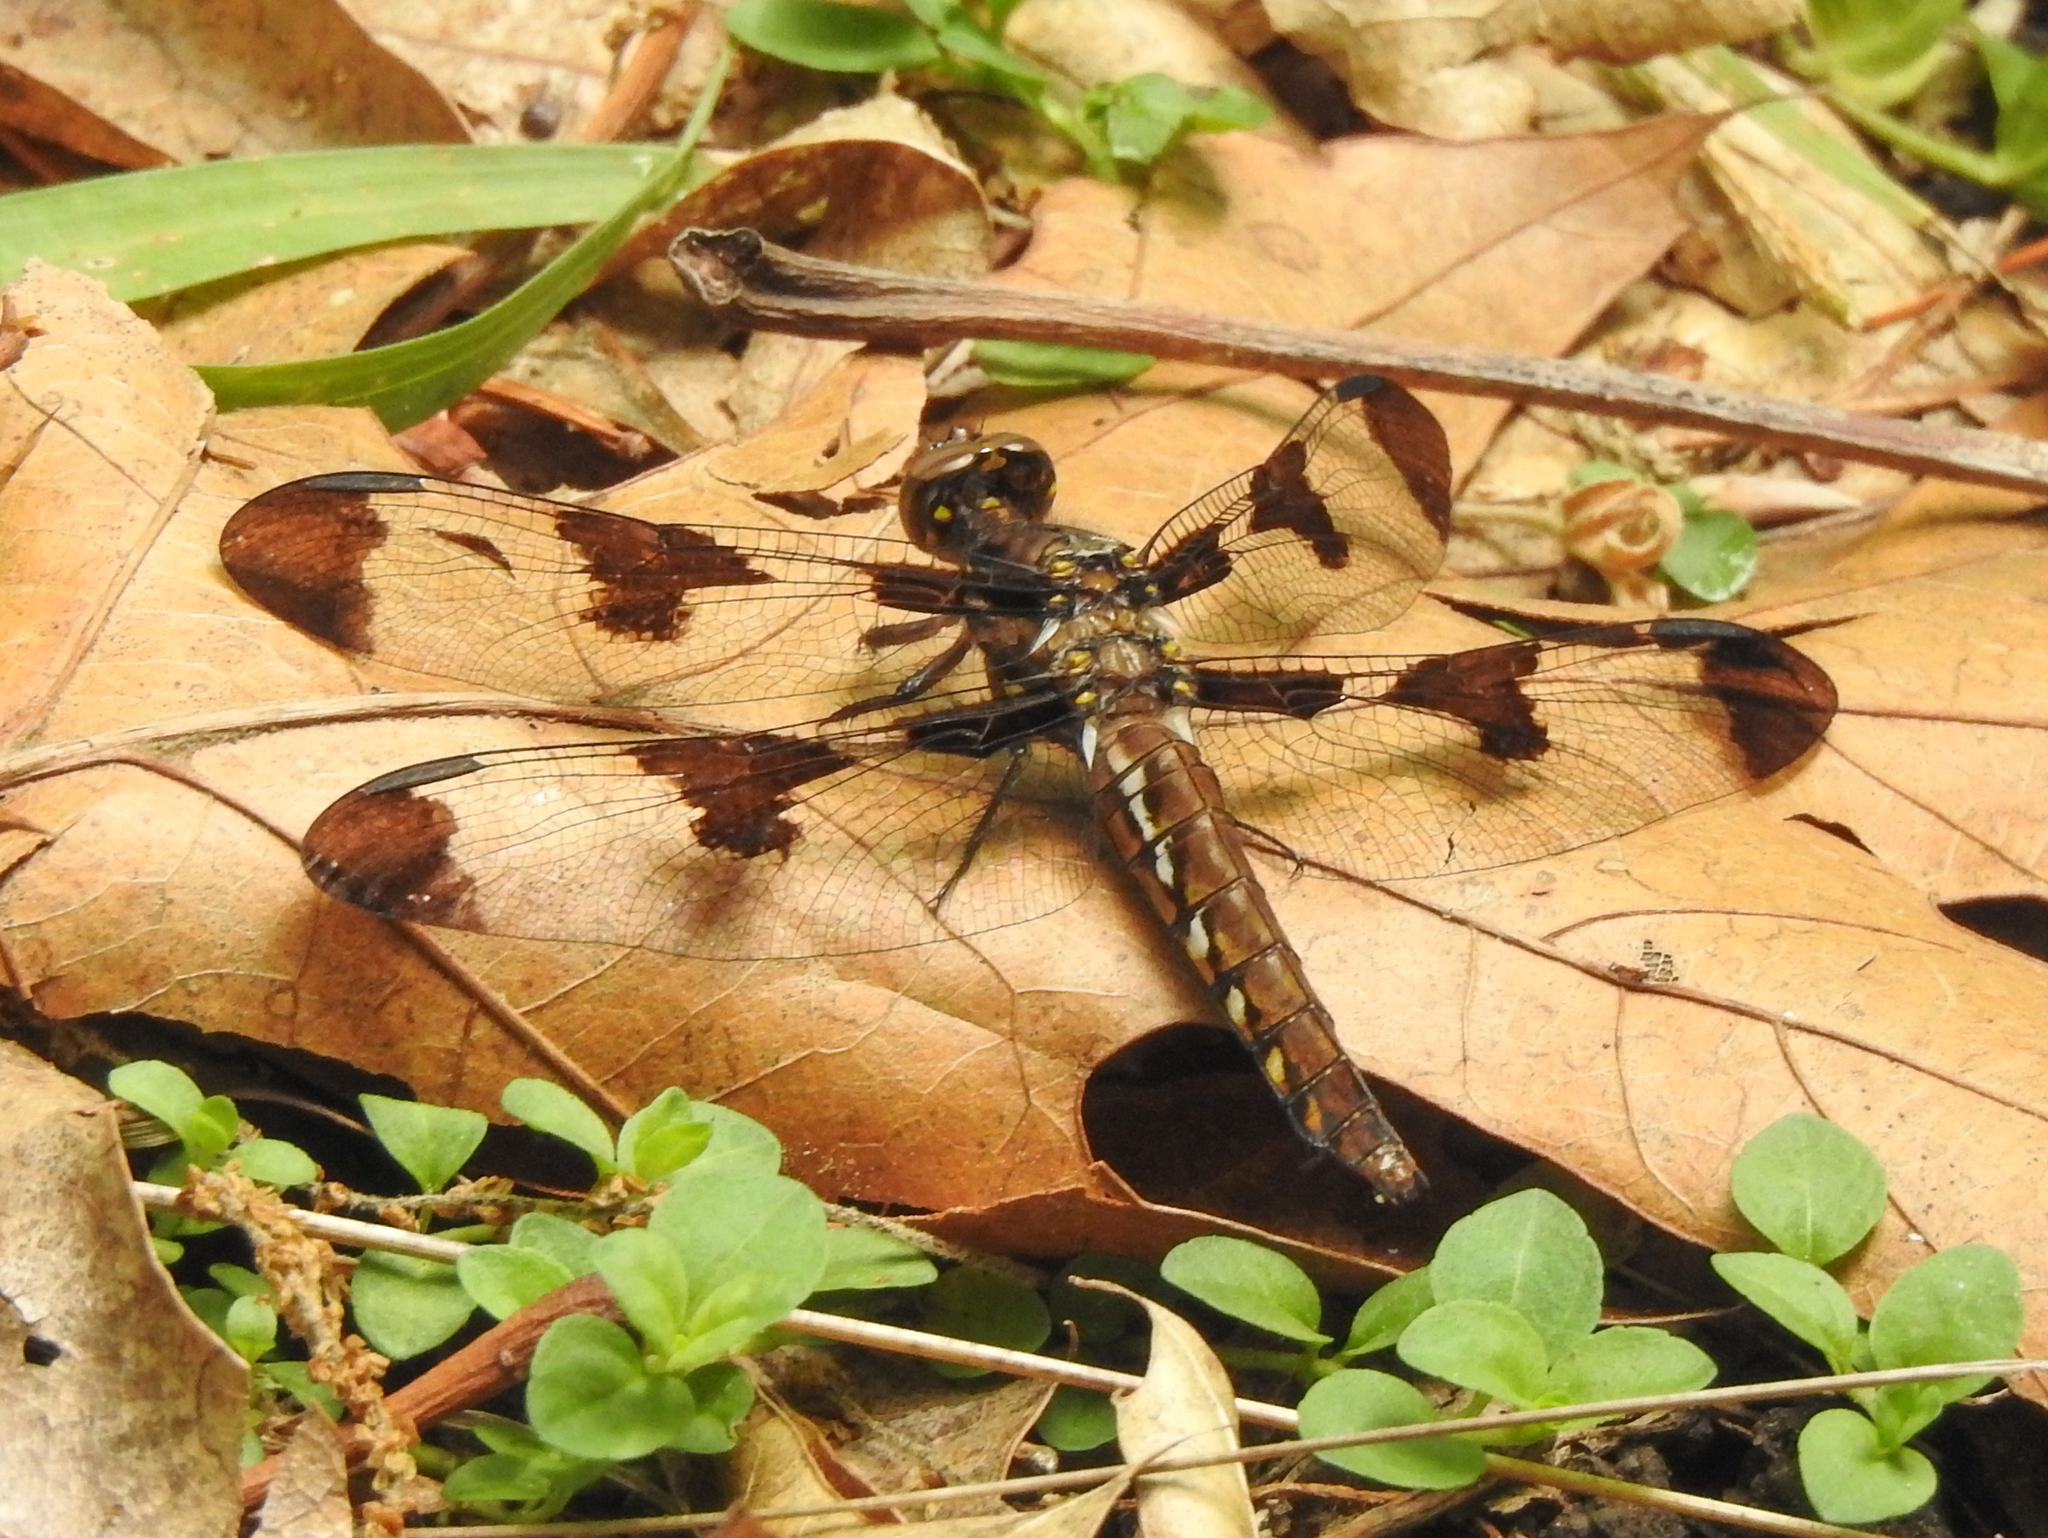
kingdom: Animalia
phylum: Arthropoda
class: Insecta
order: Odonata
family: Libellulidae
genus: Plathemis
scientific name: Plathemis lydia
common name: Common whitetail
